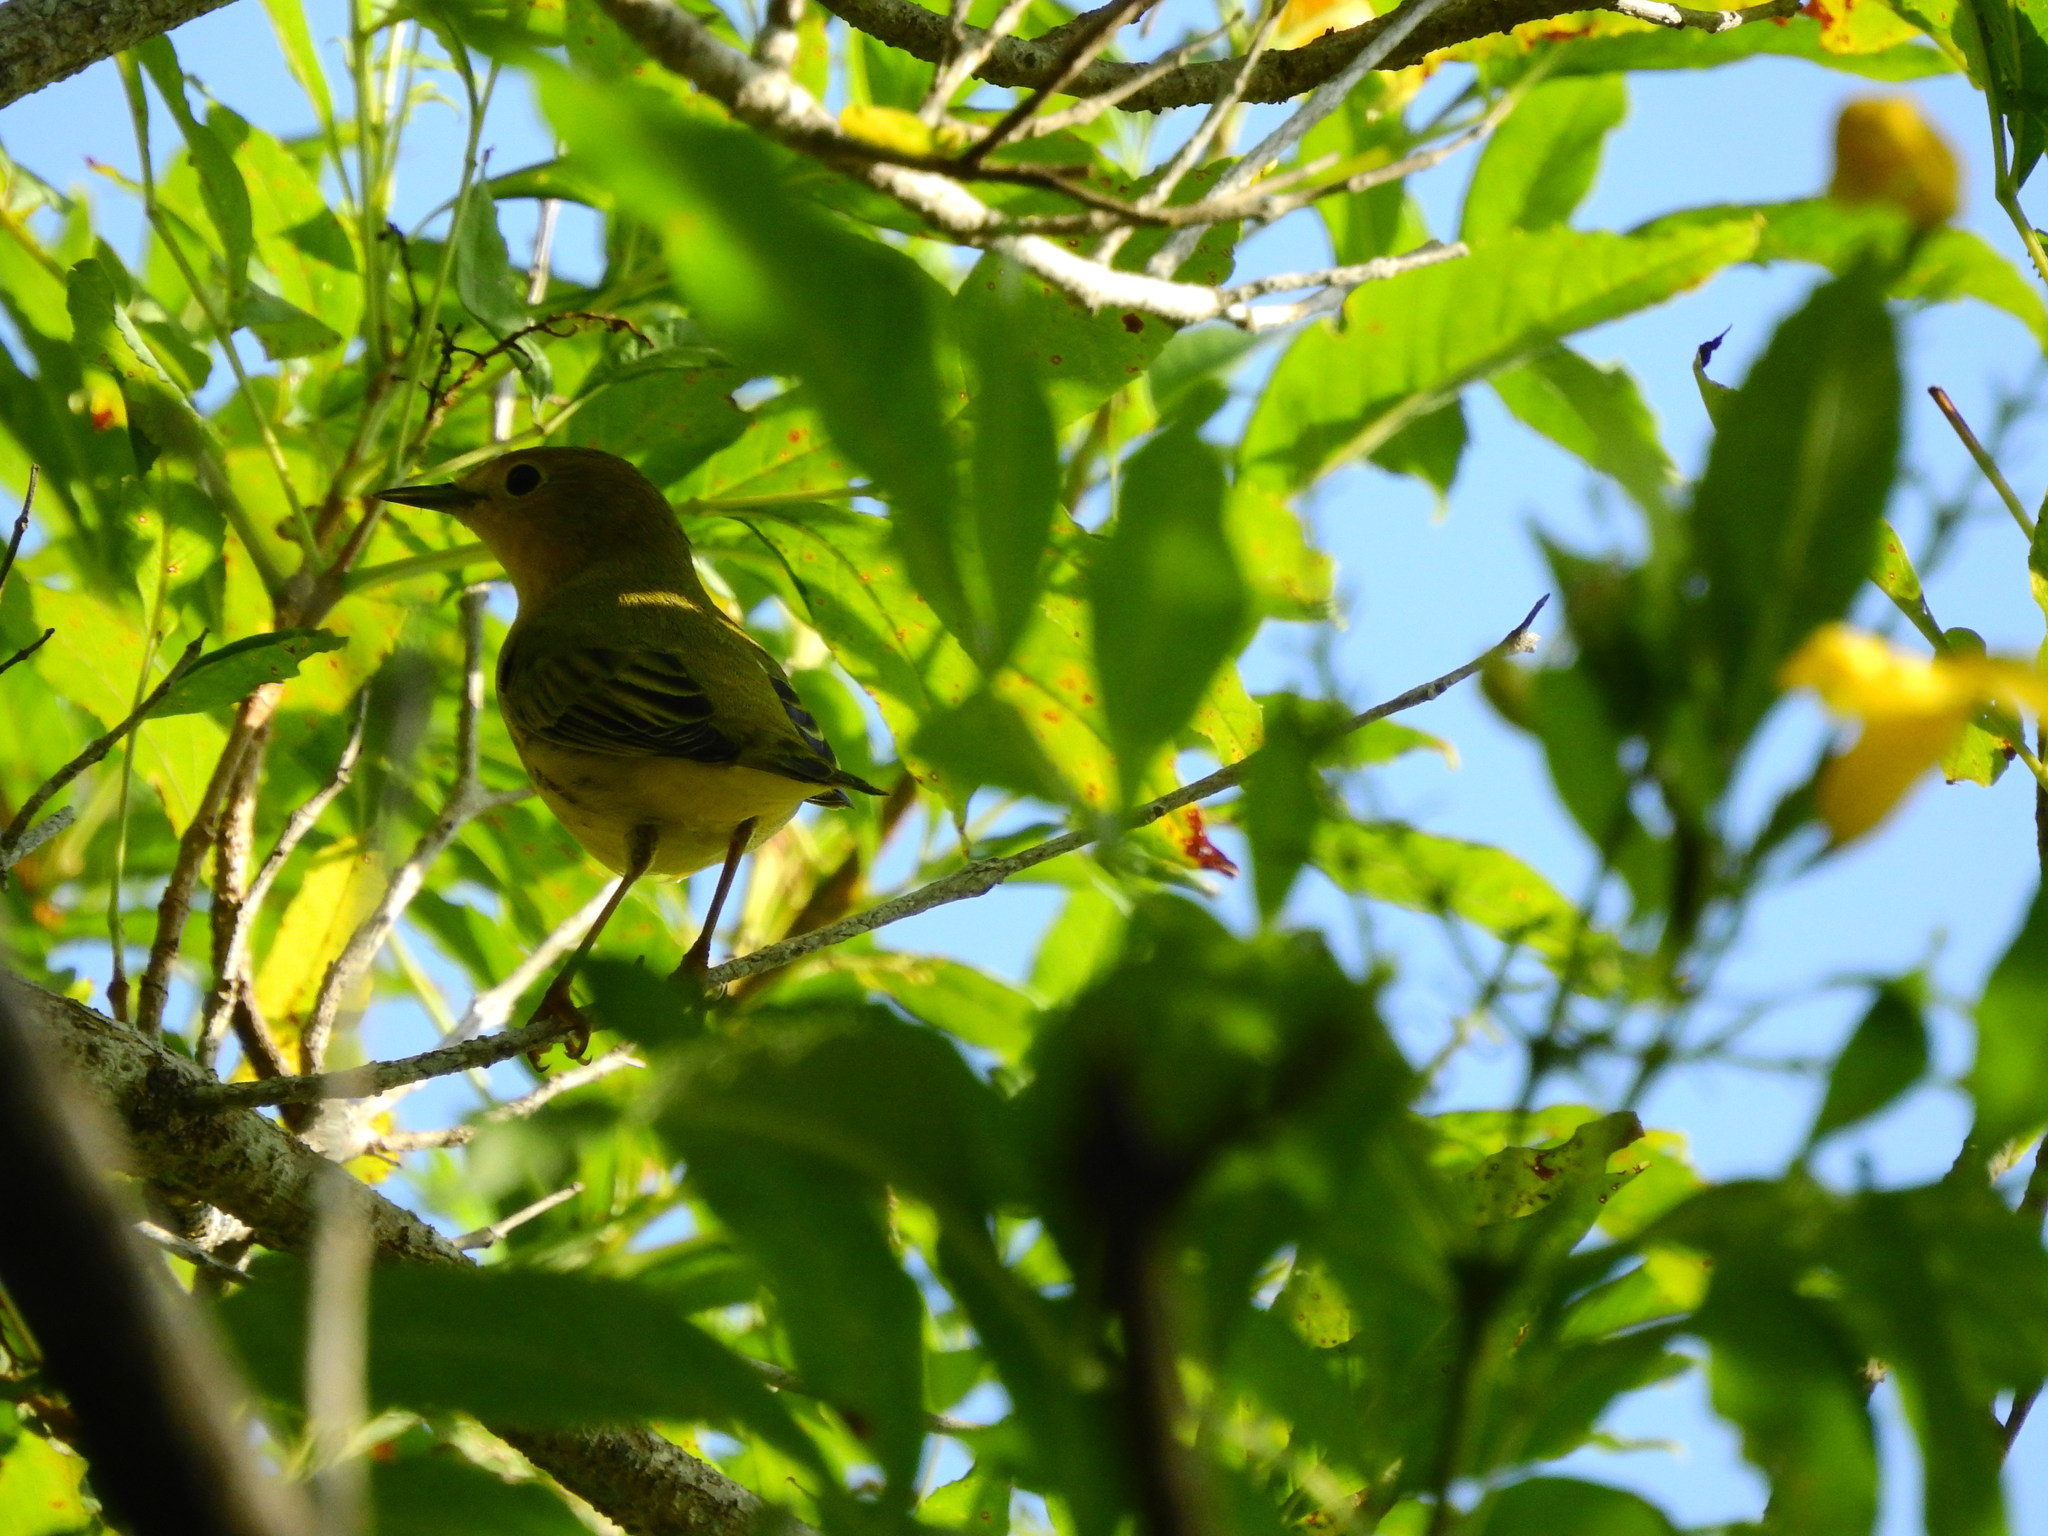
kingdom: Animalia
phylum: Chordata
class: Aves
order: Passeriformes
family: Parulidae
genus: Setophaga
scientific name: Setophaga petechia
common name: Yellow warbler
